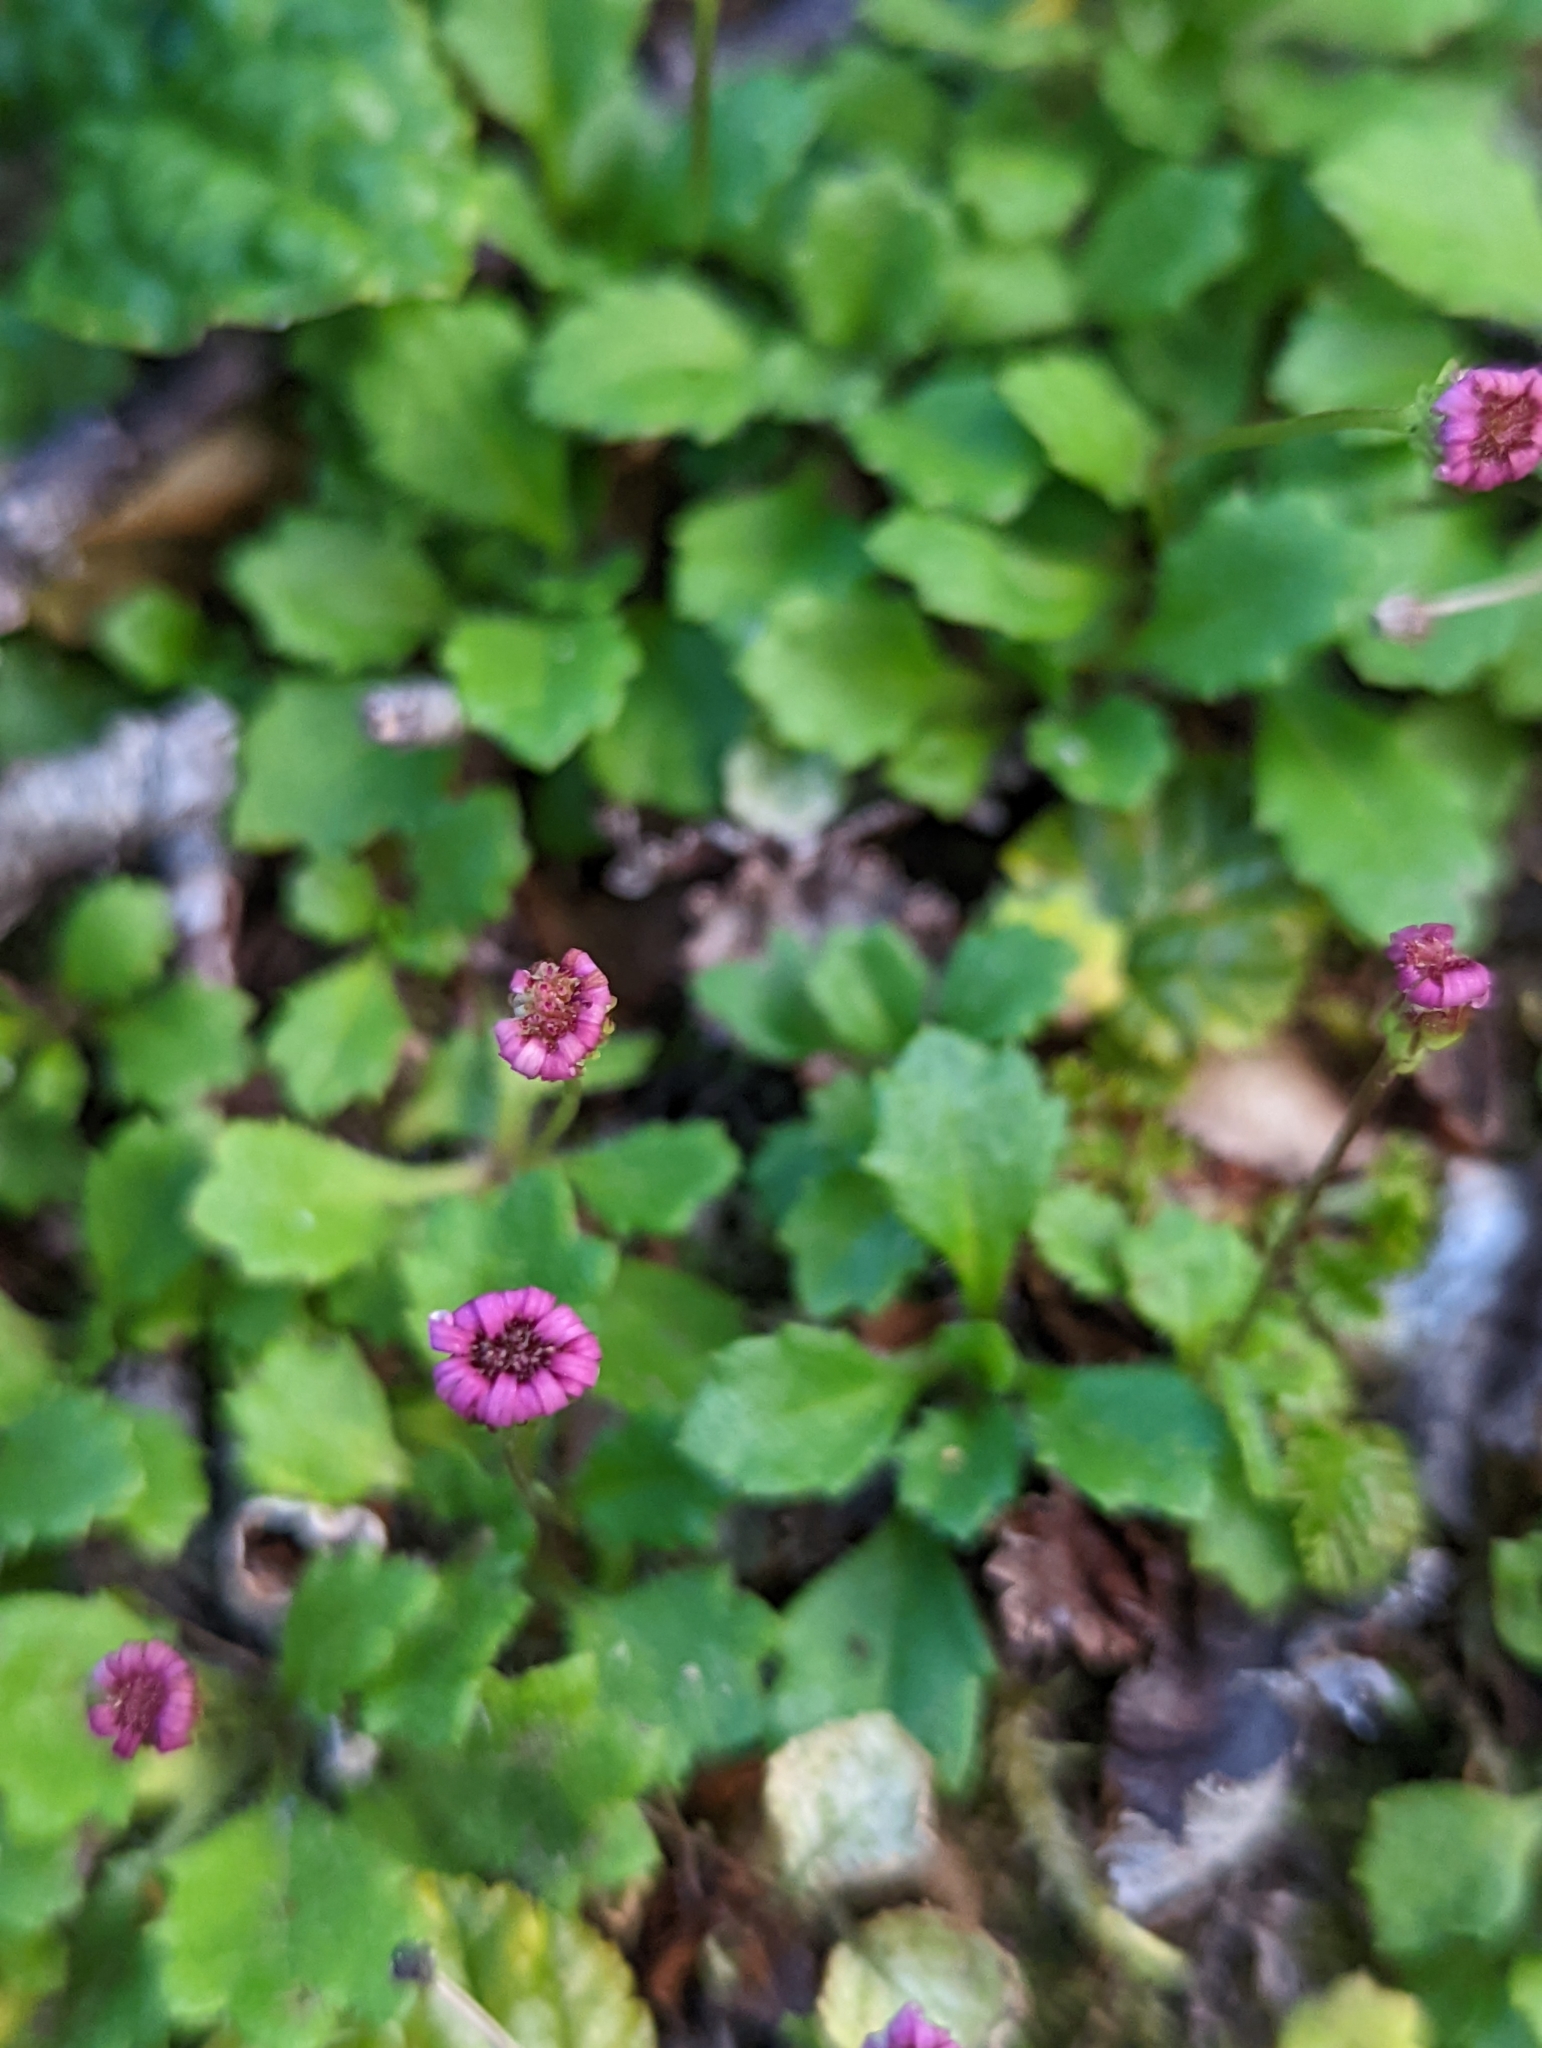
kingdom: Plantae
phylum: Tracheophyta
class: Magnoliopsida
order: Asterales
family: Asteraceae
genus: Lagenophora
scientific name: Lagenophora hariotii
